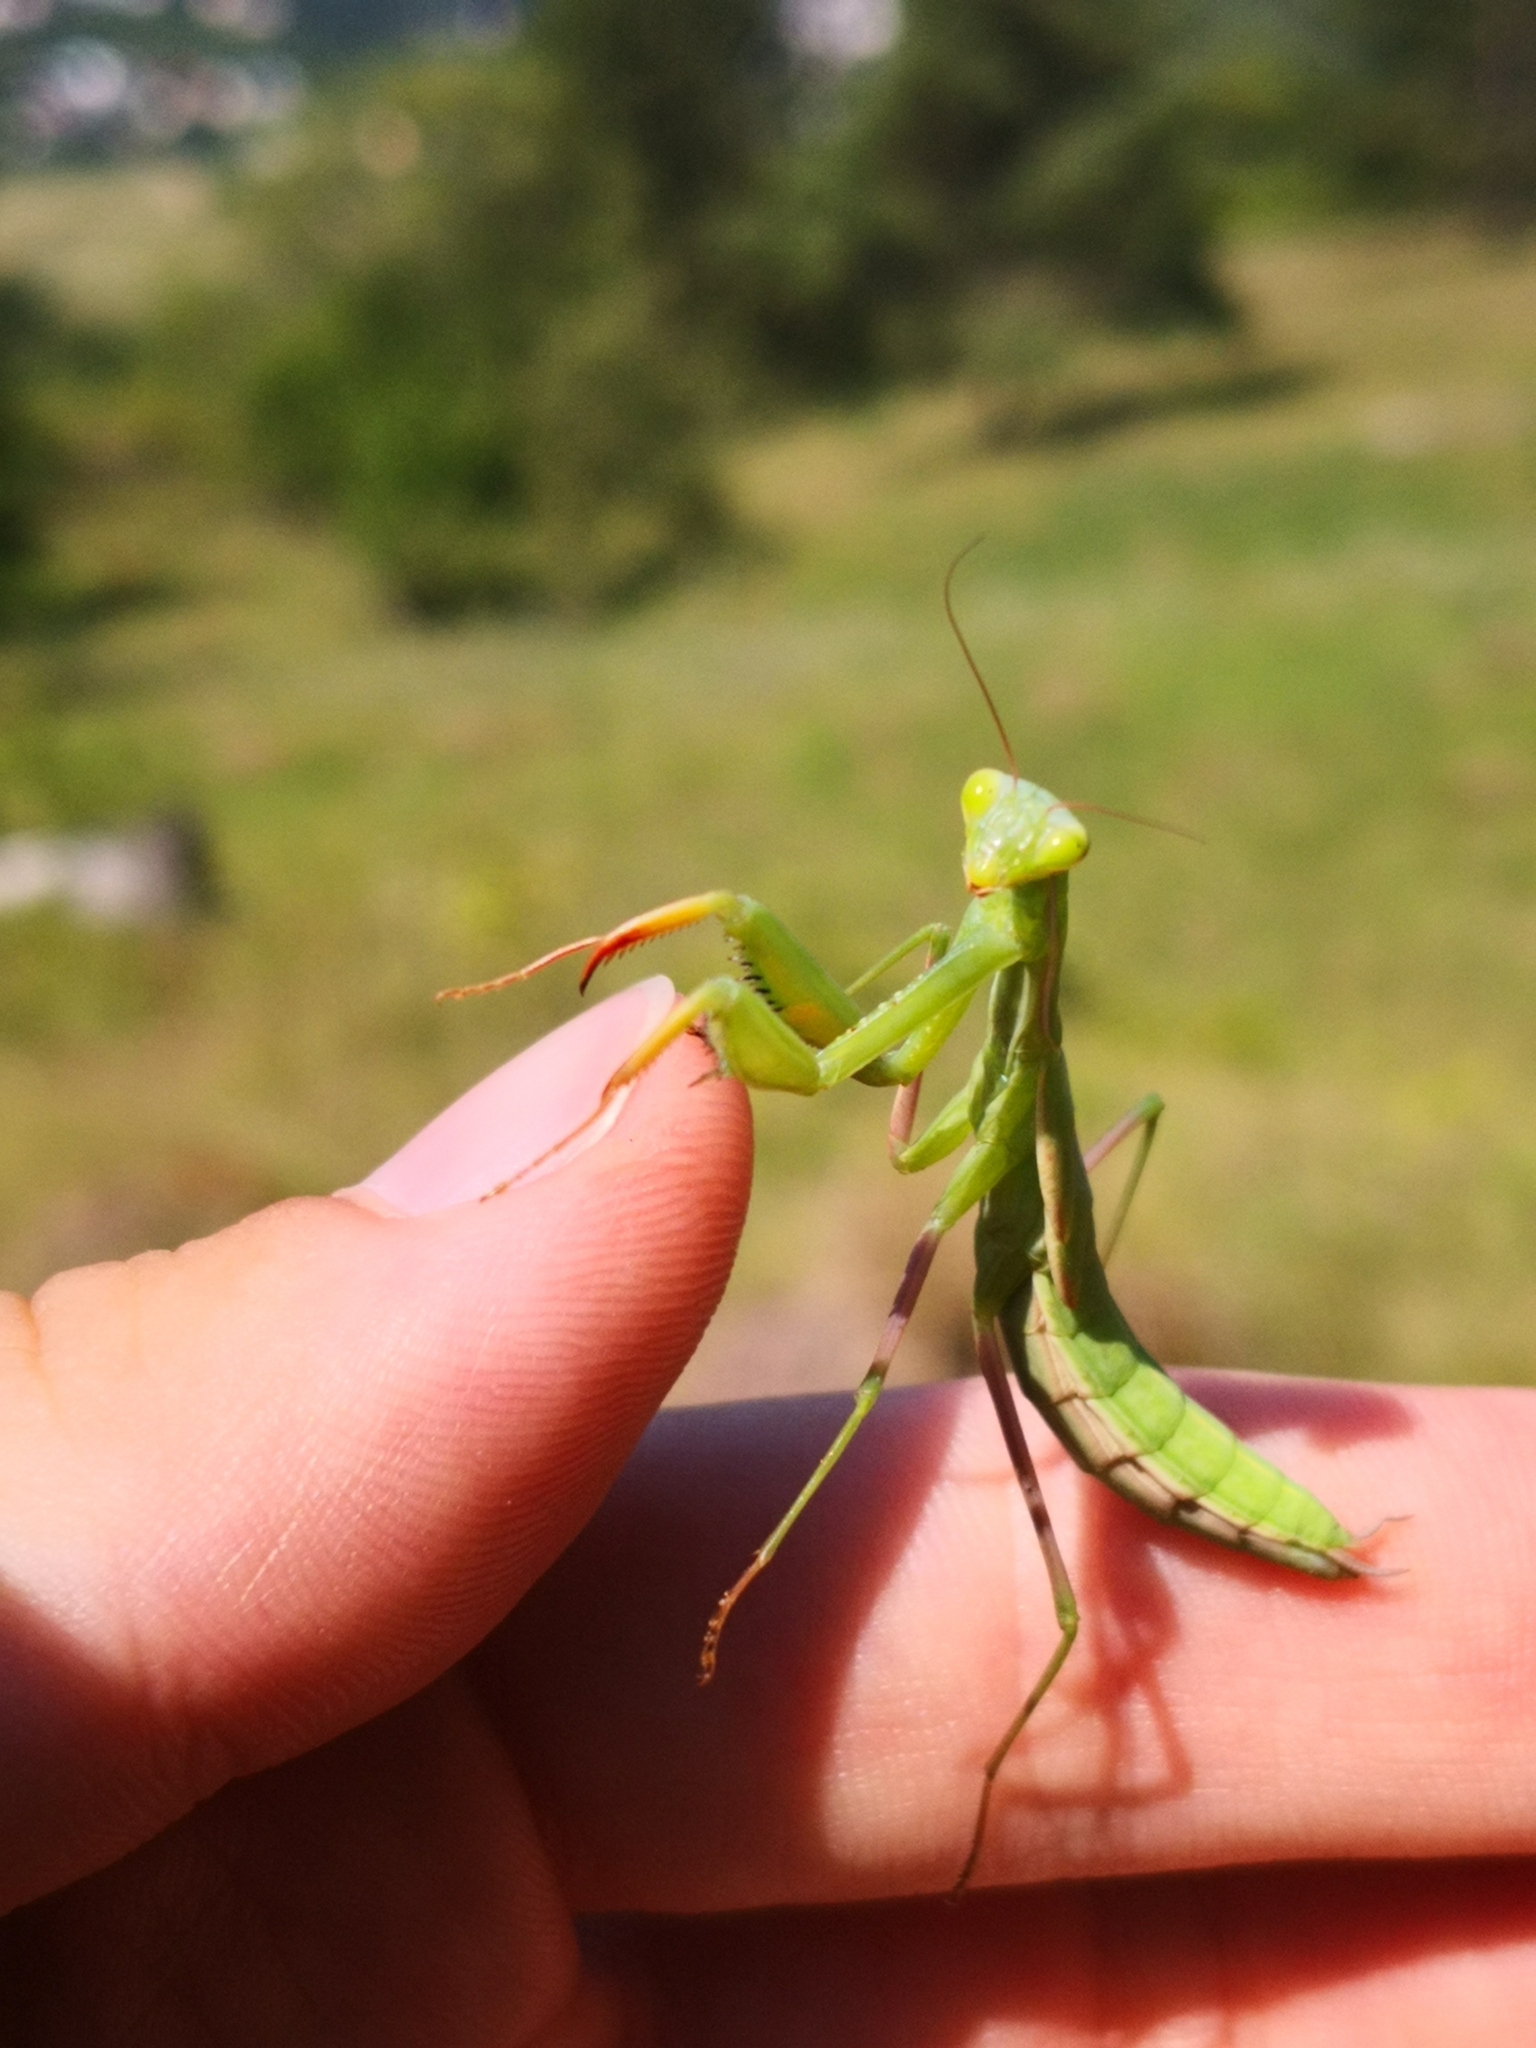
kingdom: Animalia
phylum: Arthropoda
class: Insecta
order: Mantodea
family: Mantidae
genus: Mantis
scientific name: Mantis religiosa
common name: Praying mantis
